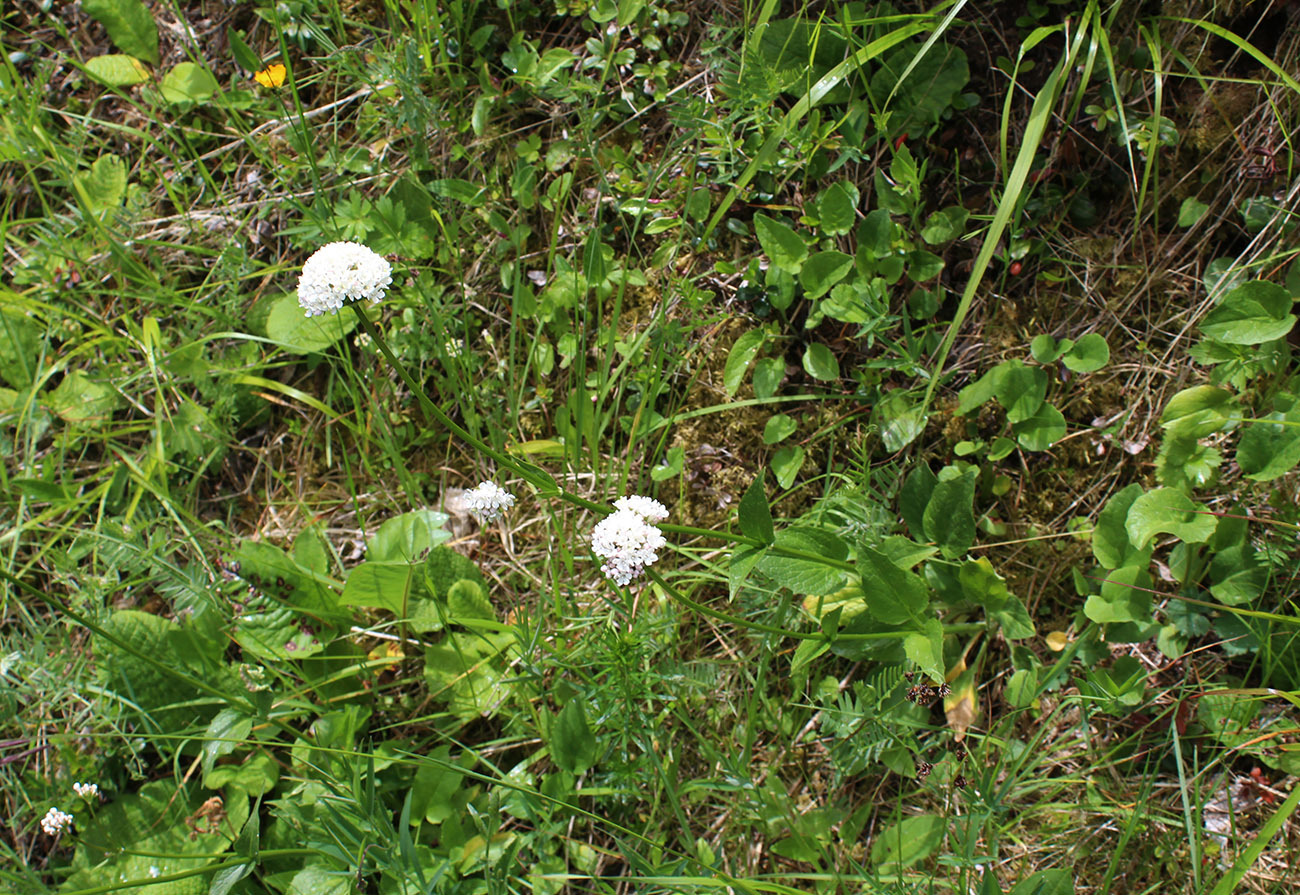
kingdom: Plantae
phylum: Tracheophyta
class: Magnoliopsida
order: Dipsacales
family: Caprifoliaceae
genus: Valeriana
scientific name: Valeriana alpestris
